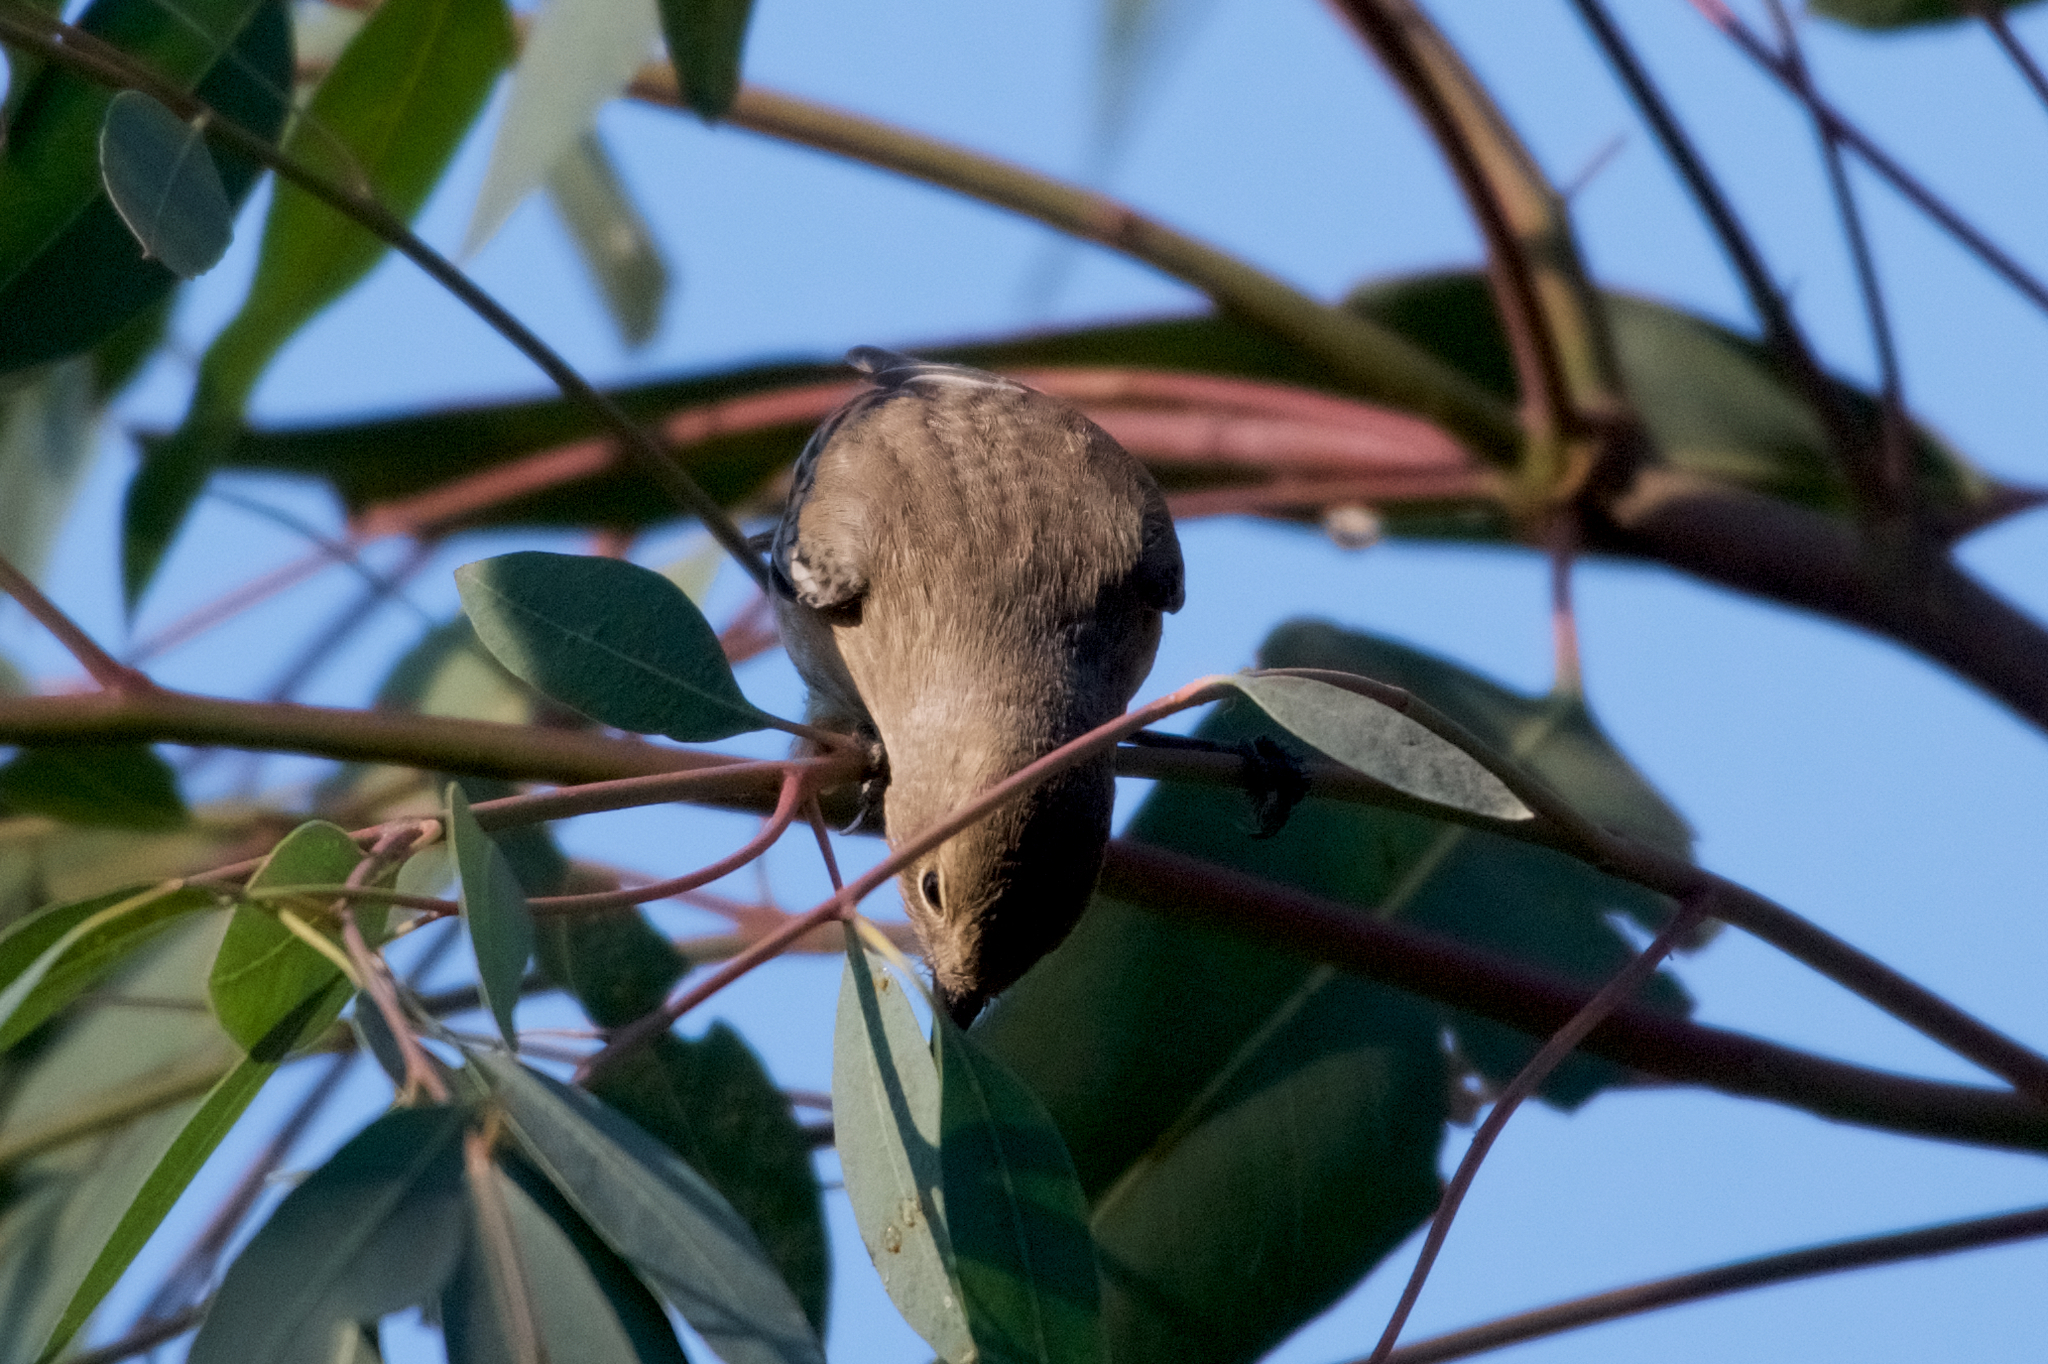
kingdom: Animalia
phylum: Chordata
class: Aves
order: Passeriformes
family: Parulidae
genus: Setophaga
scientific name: Setophaga coronata
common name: Myrtle warbler
